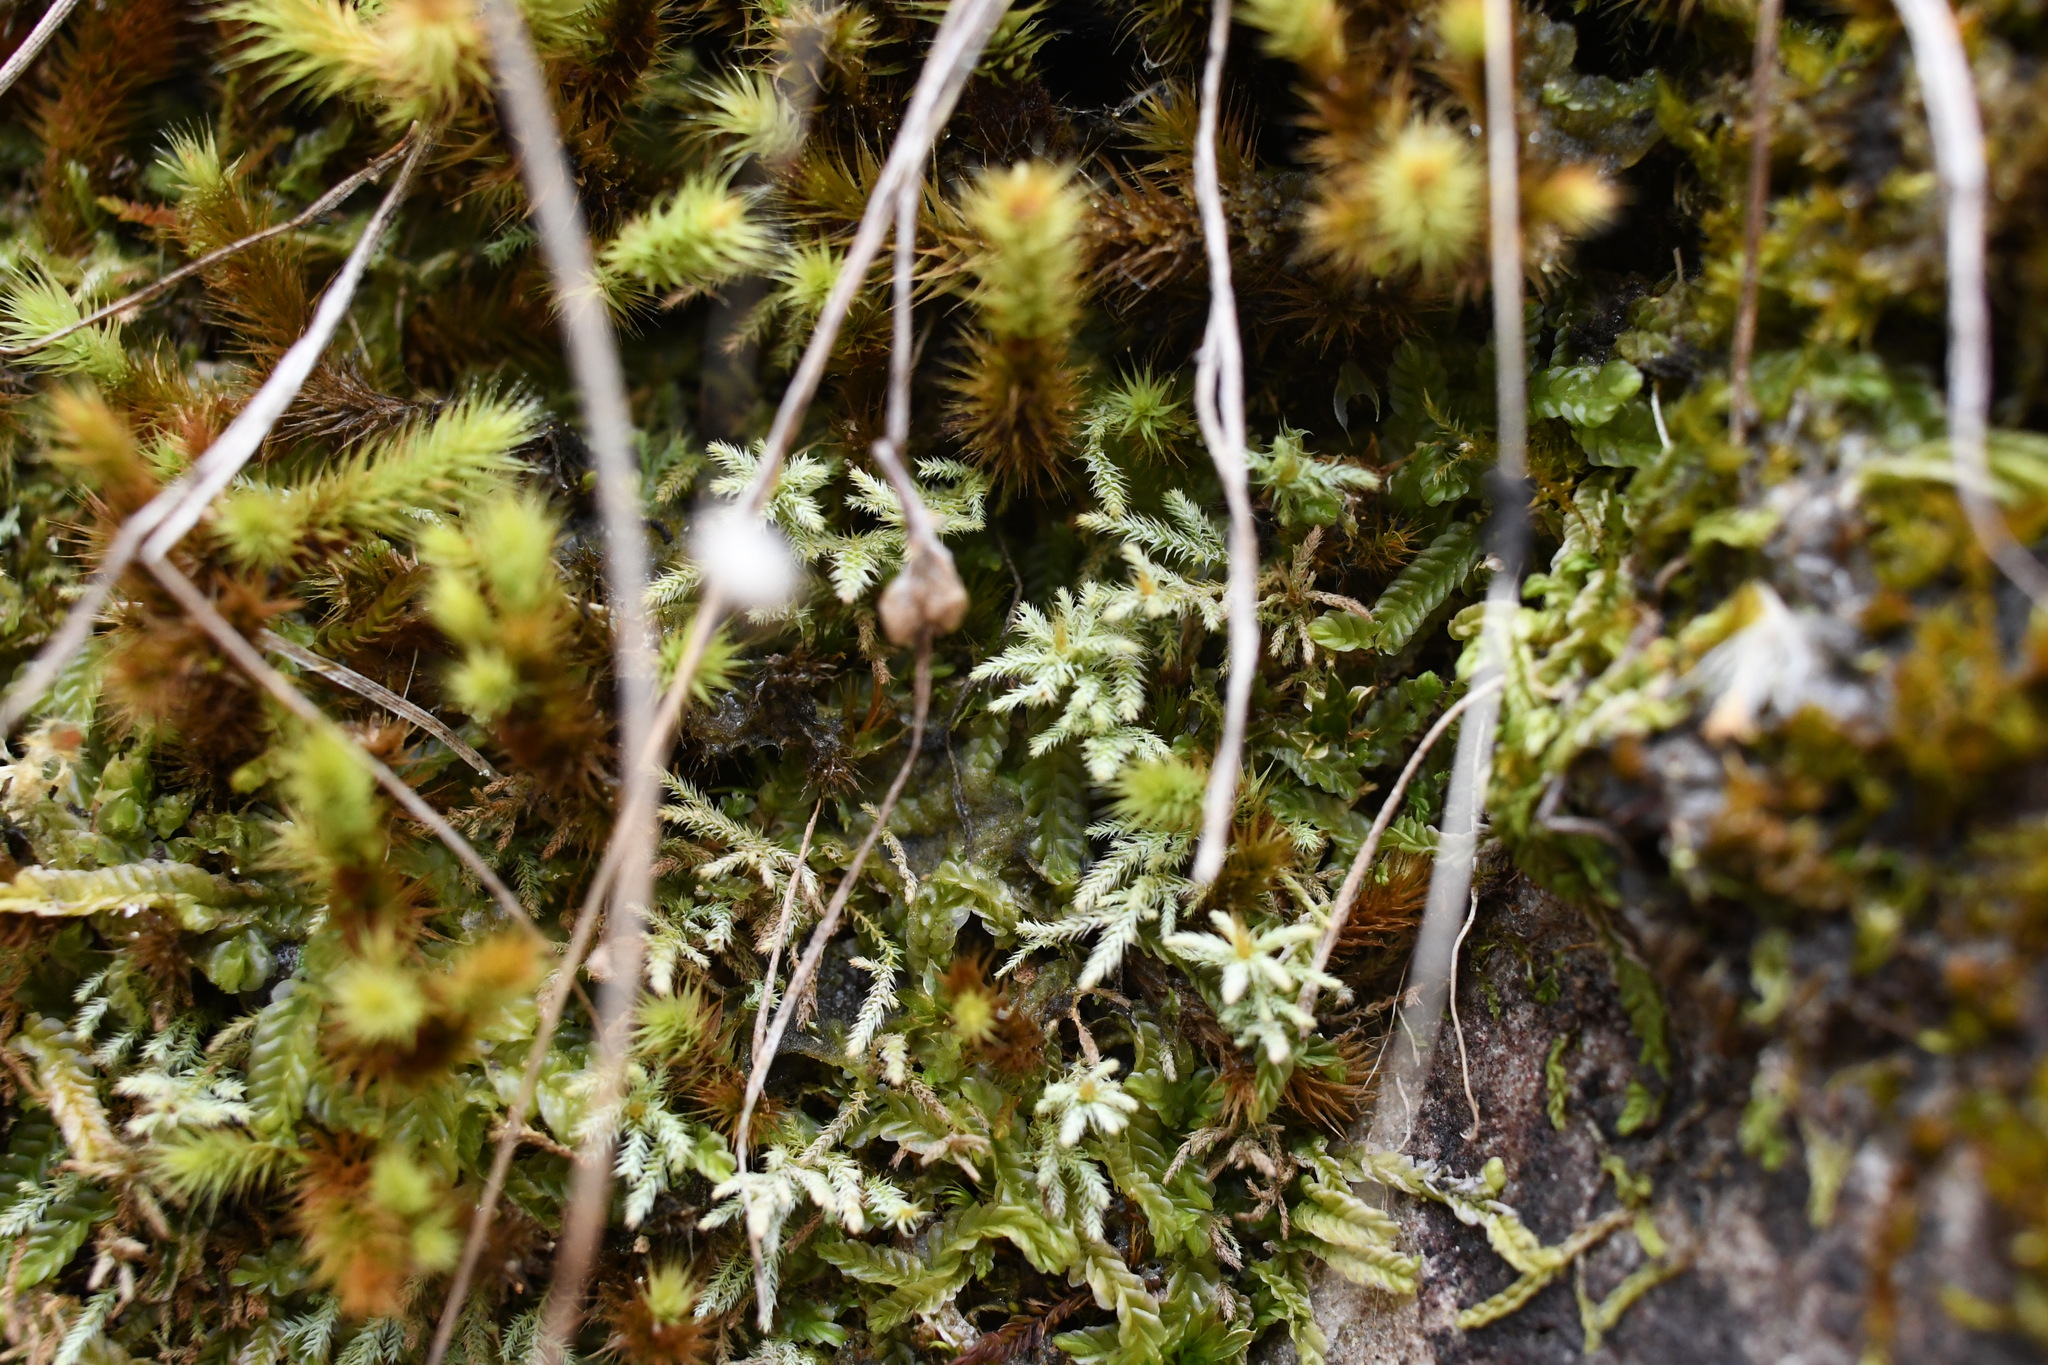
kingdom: Plantae
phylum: Bryophyta
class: Bryopsida
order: Bartramiales
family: Bartramiaceae
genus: Philonotis
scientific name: Philonotis scabrifolia
